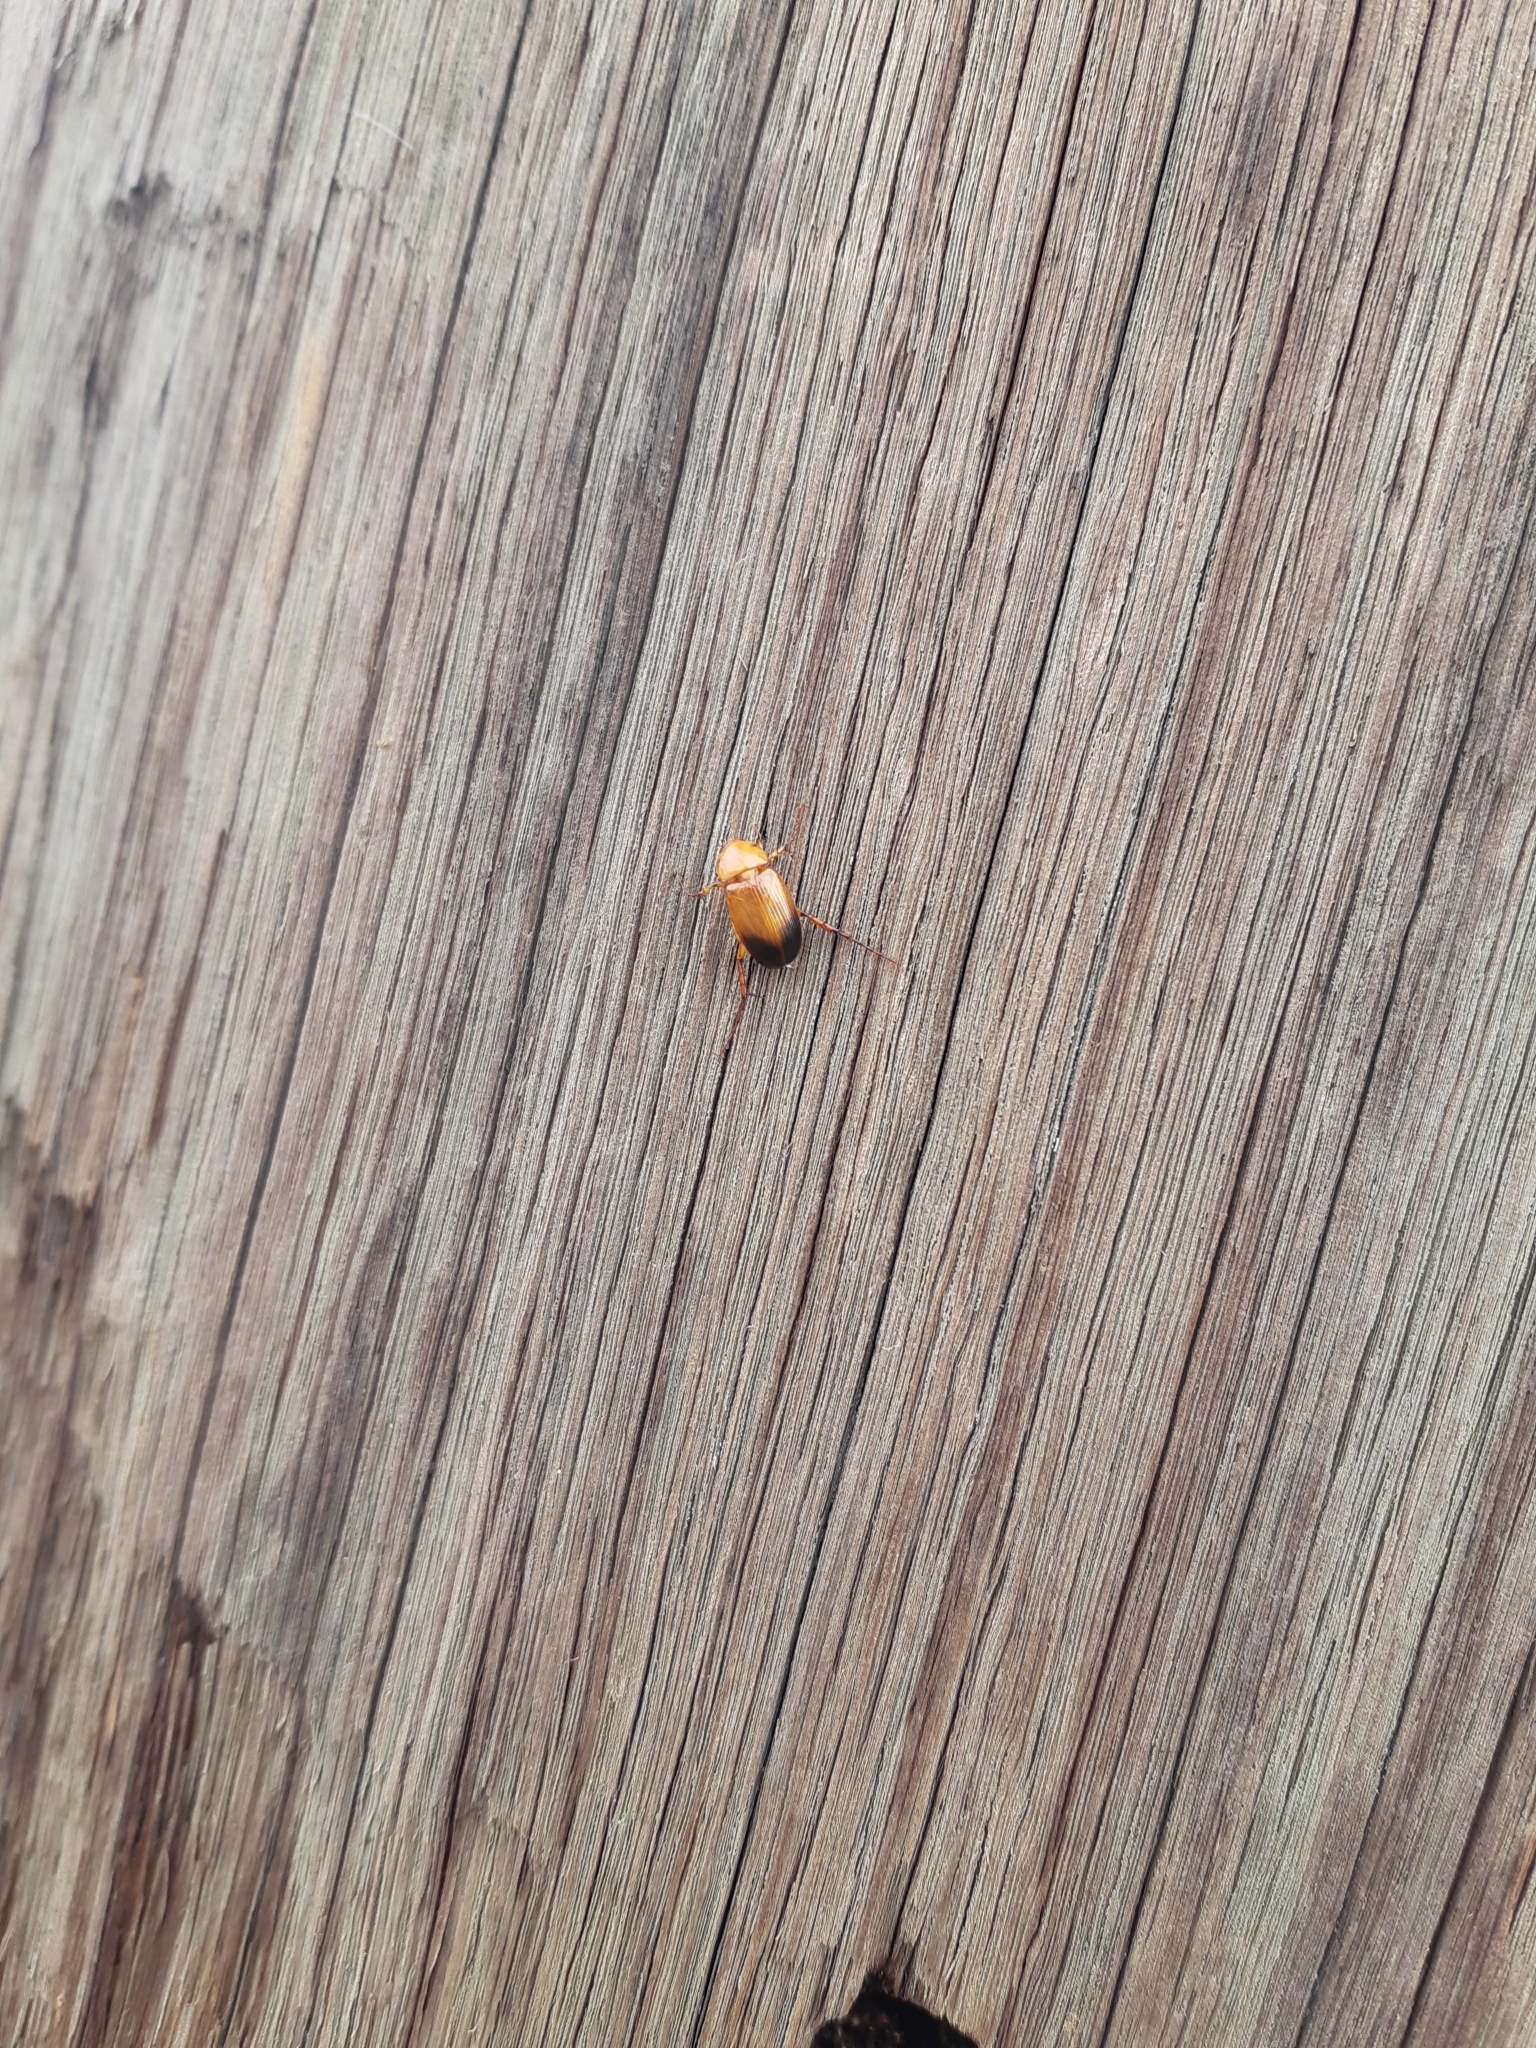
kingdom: Animalia
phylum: Arthropoda
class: Insecta
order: Coleoptera
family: Scarabaeidae
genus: Phyllotocus
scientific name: Phyllotocus macleayi
